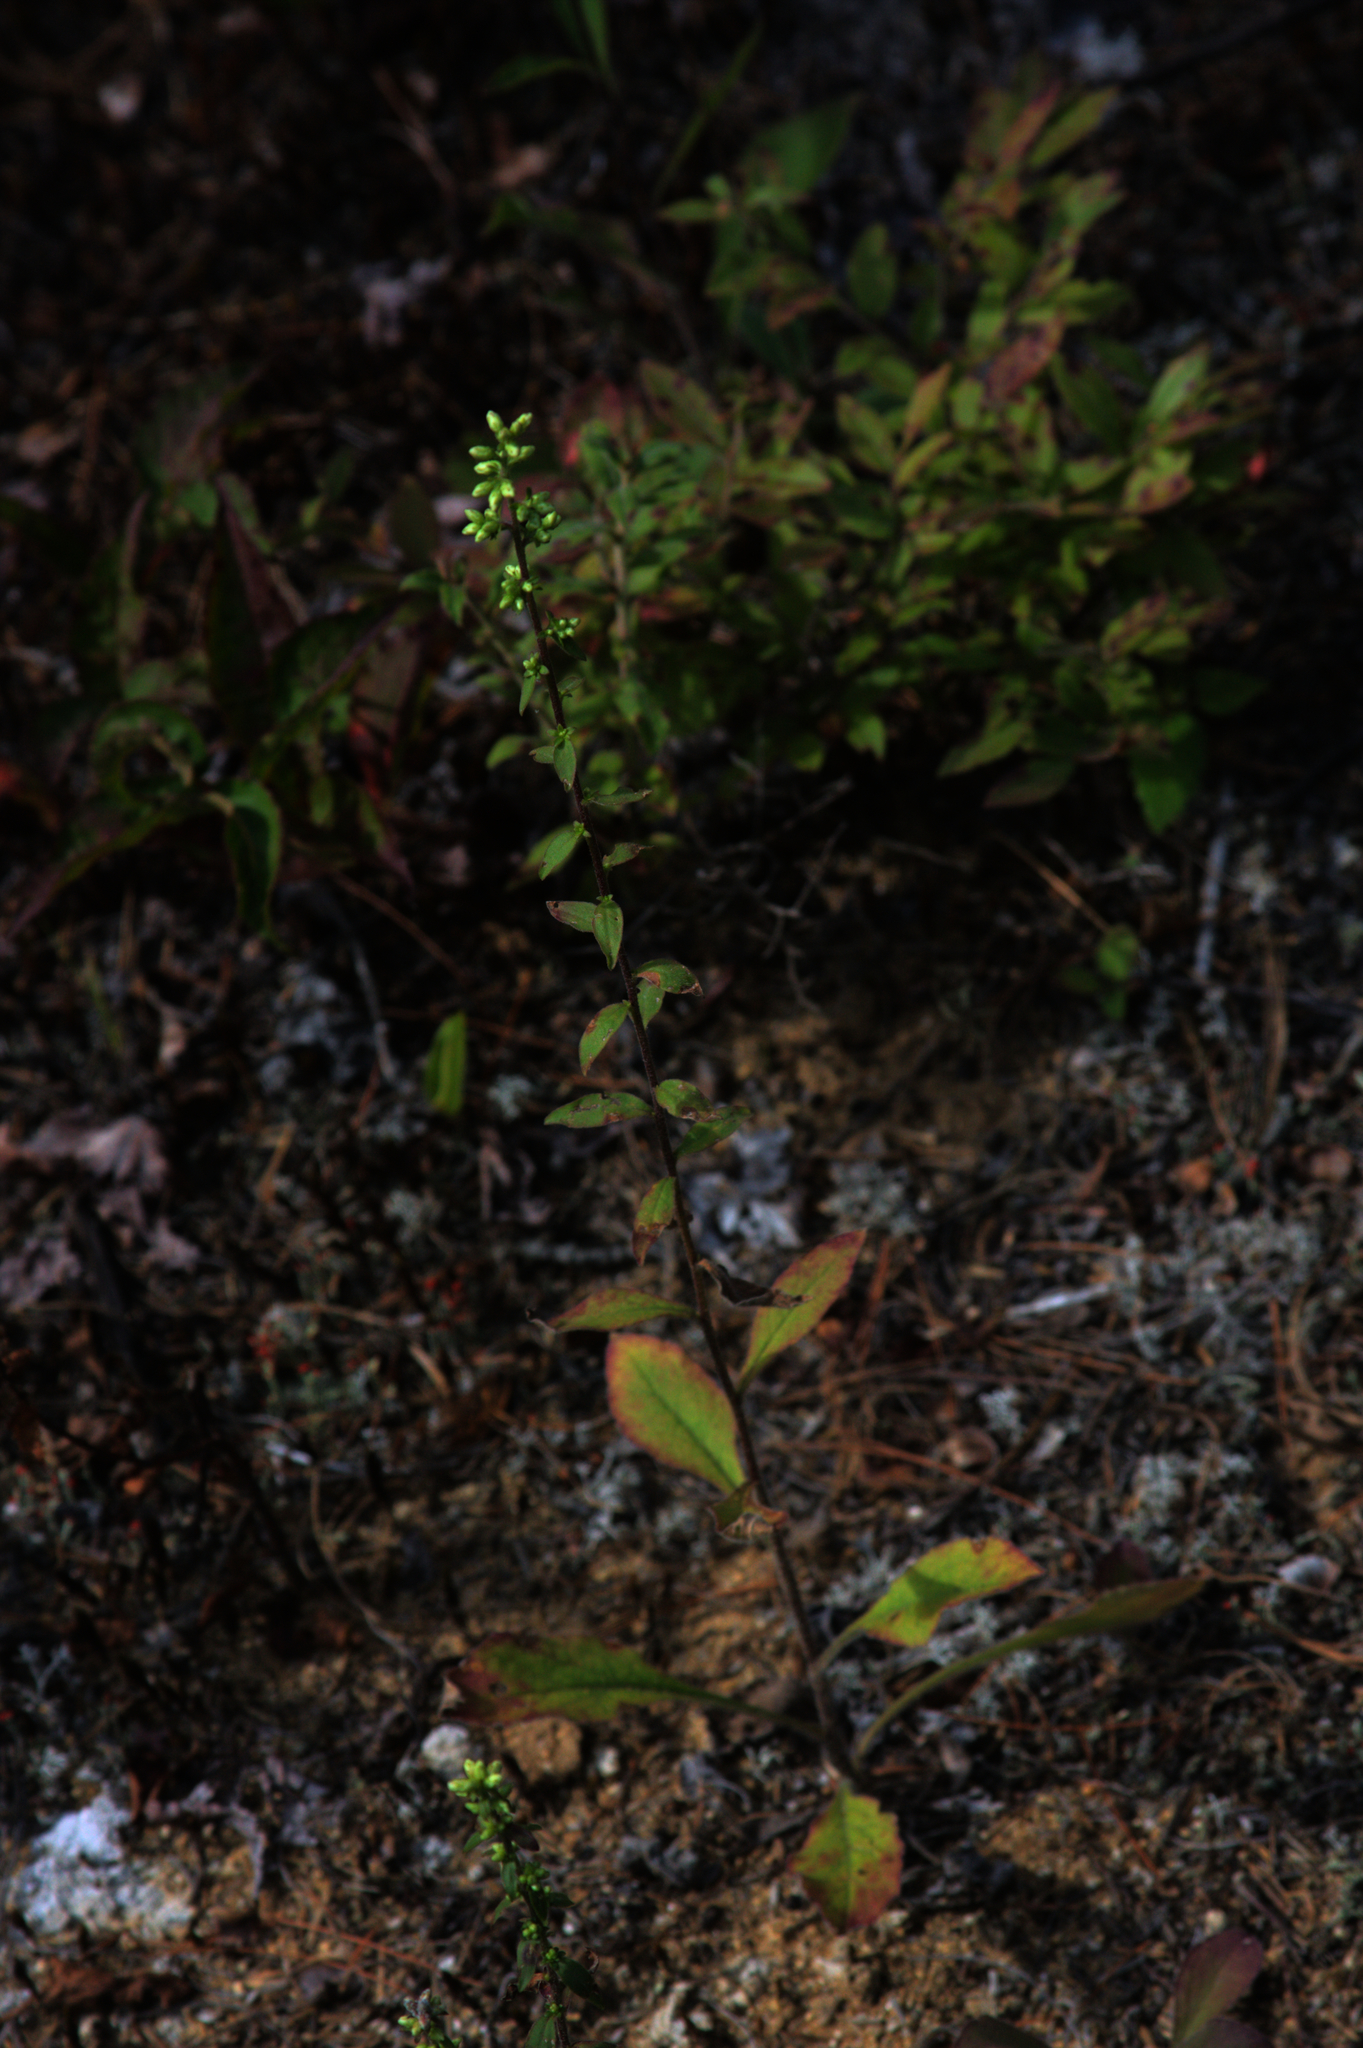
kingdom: Plantae
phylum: Tracheophyta
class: Magnoliopsida
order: Asterales
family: Asteraceae
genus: Solidago
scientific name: Solidago bicolor
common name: Silverrod
